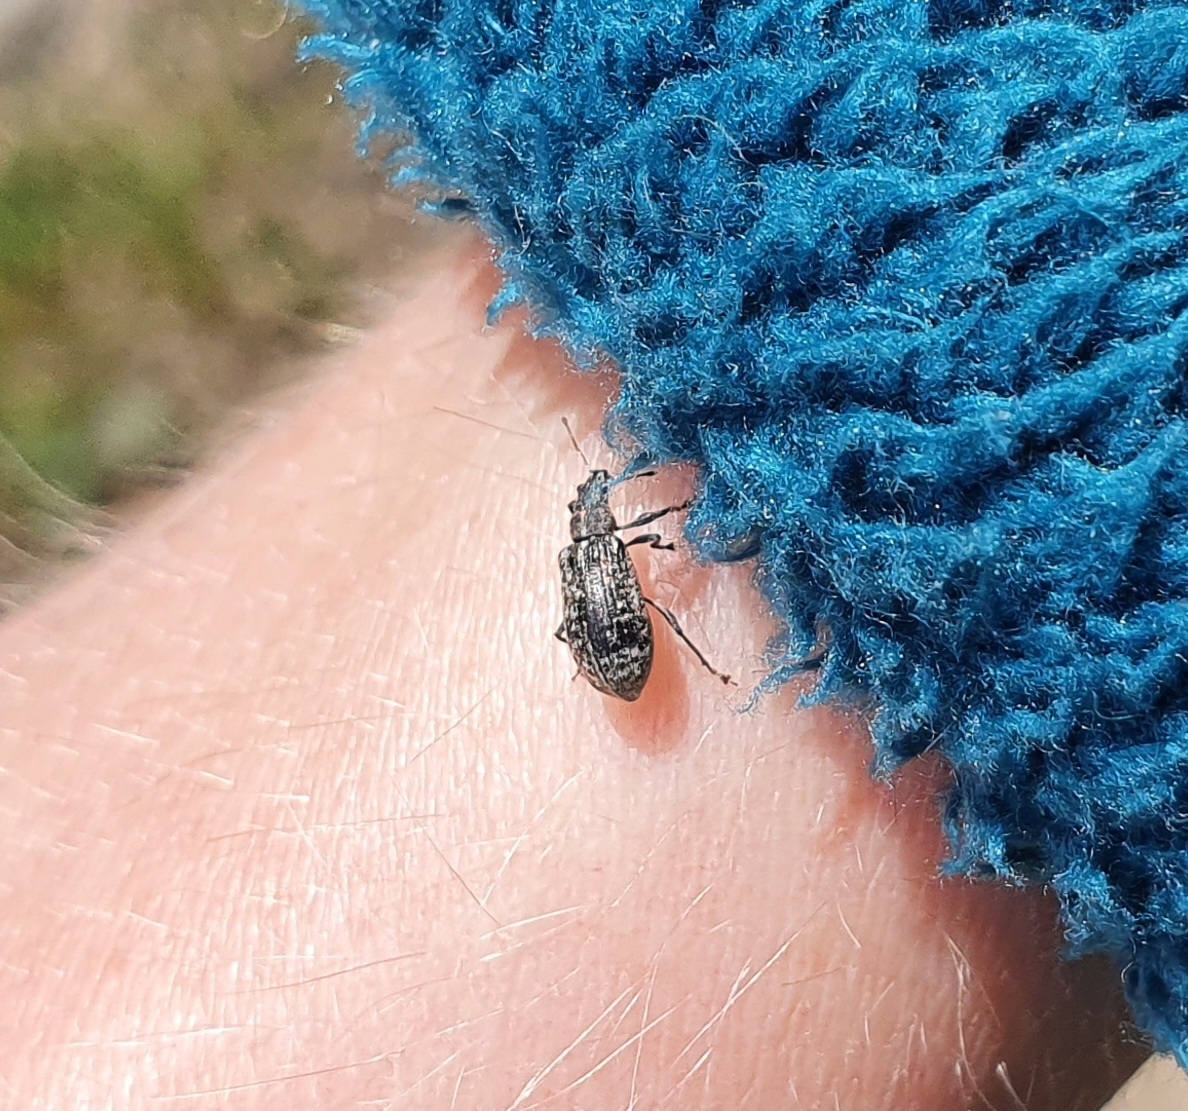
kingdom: Animalia
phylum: Arthropoda
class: Insecta
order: Coleoptera
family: Curculionidae
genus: Polydrusus
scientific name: Polydrusus pilosus
